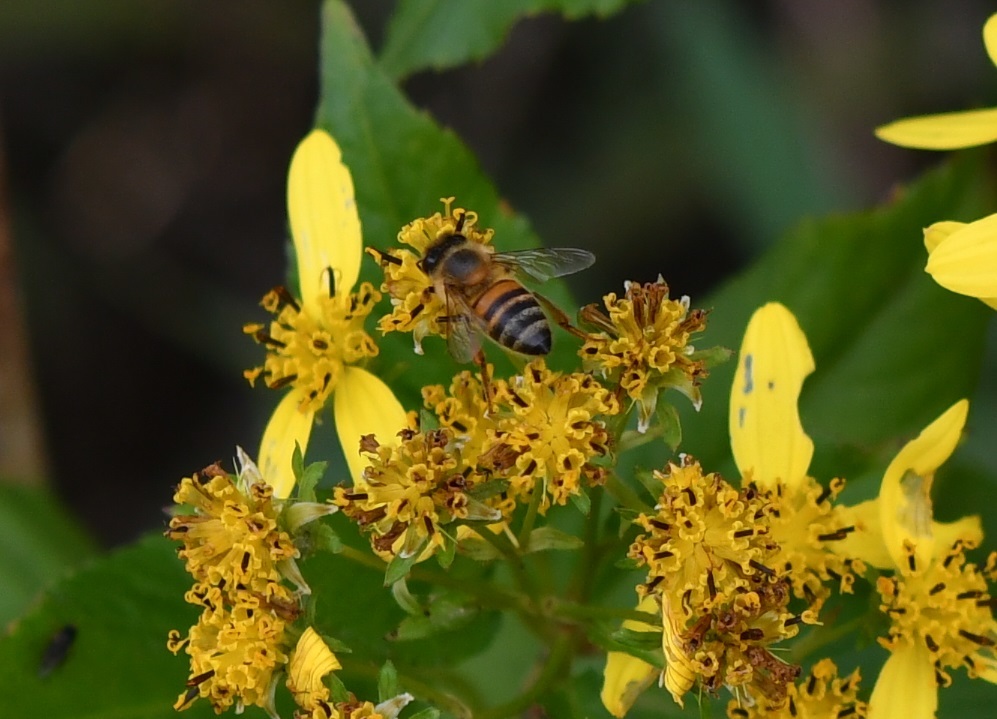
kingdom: Animalia
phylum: Arthropoda
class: Insecta
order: Hymenoptera
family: Apidae
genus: Apis
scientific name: Apis mellifera
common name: Honey bee
